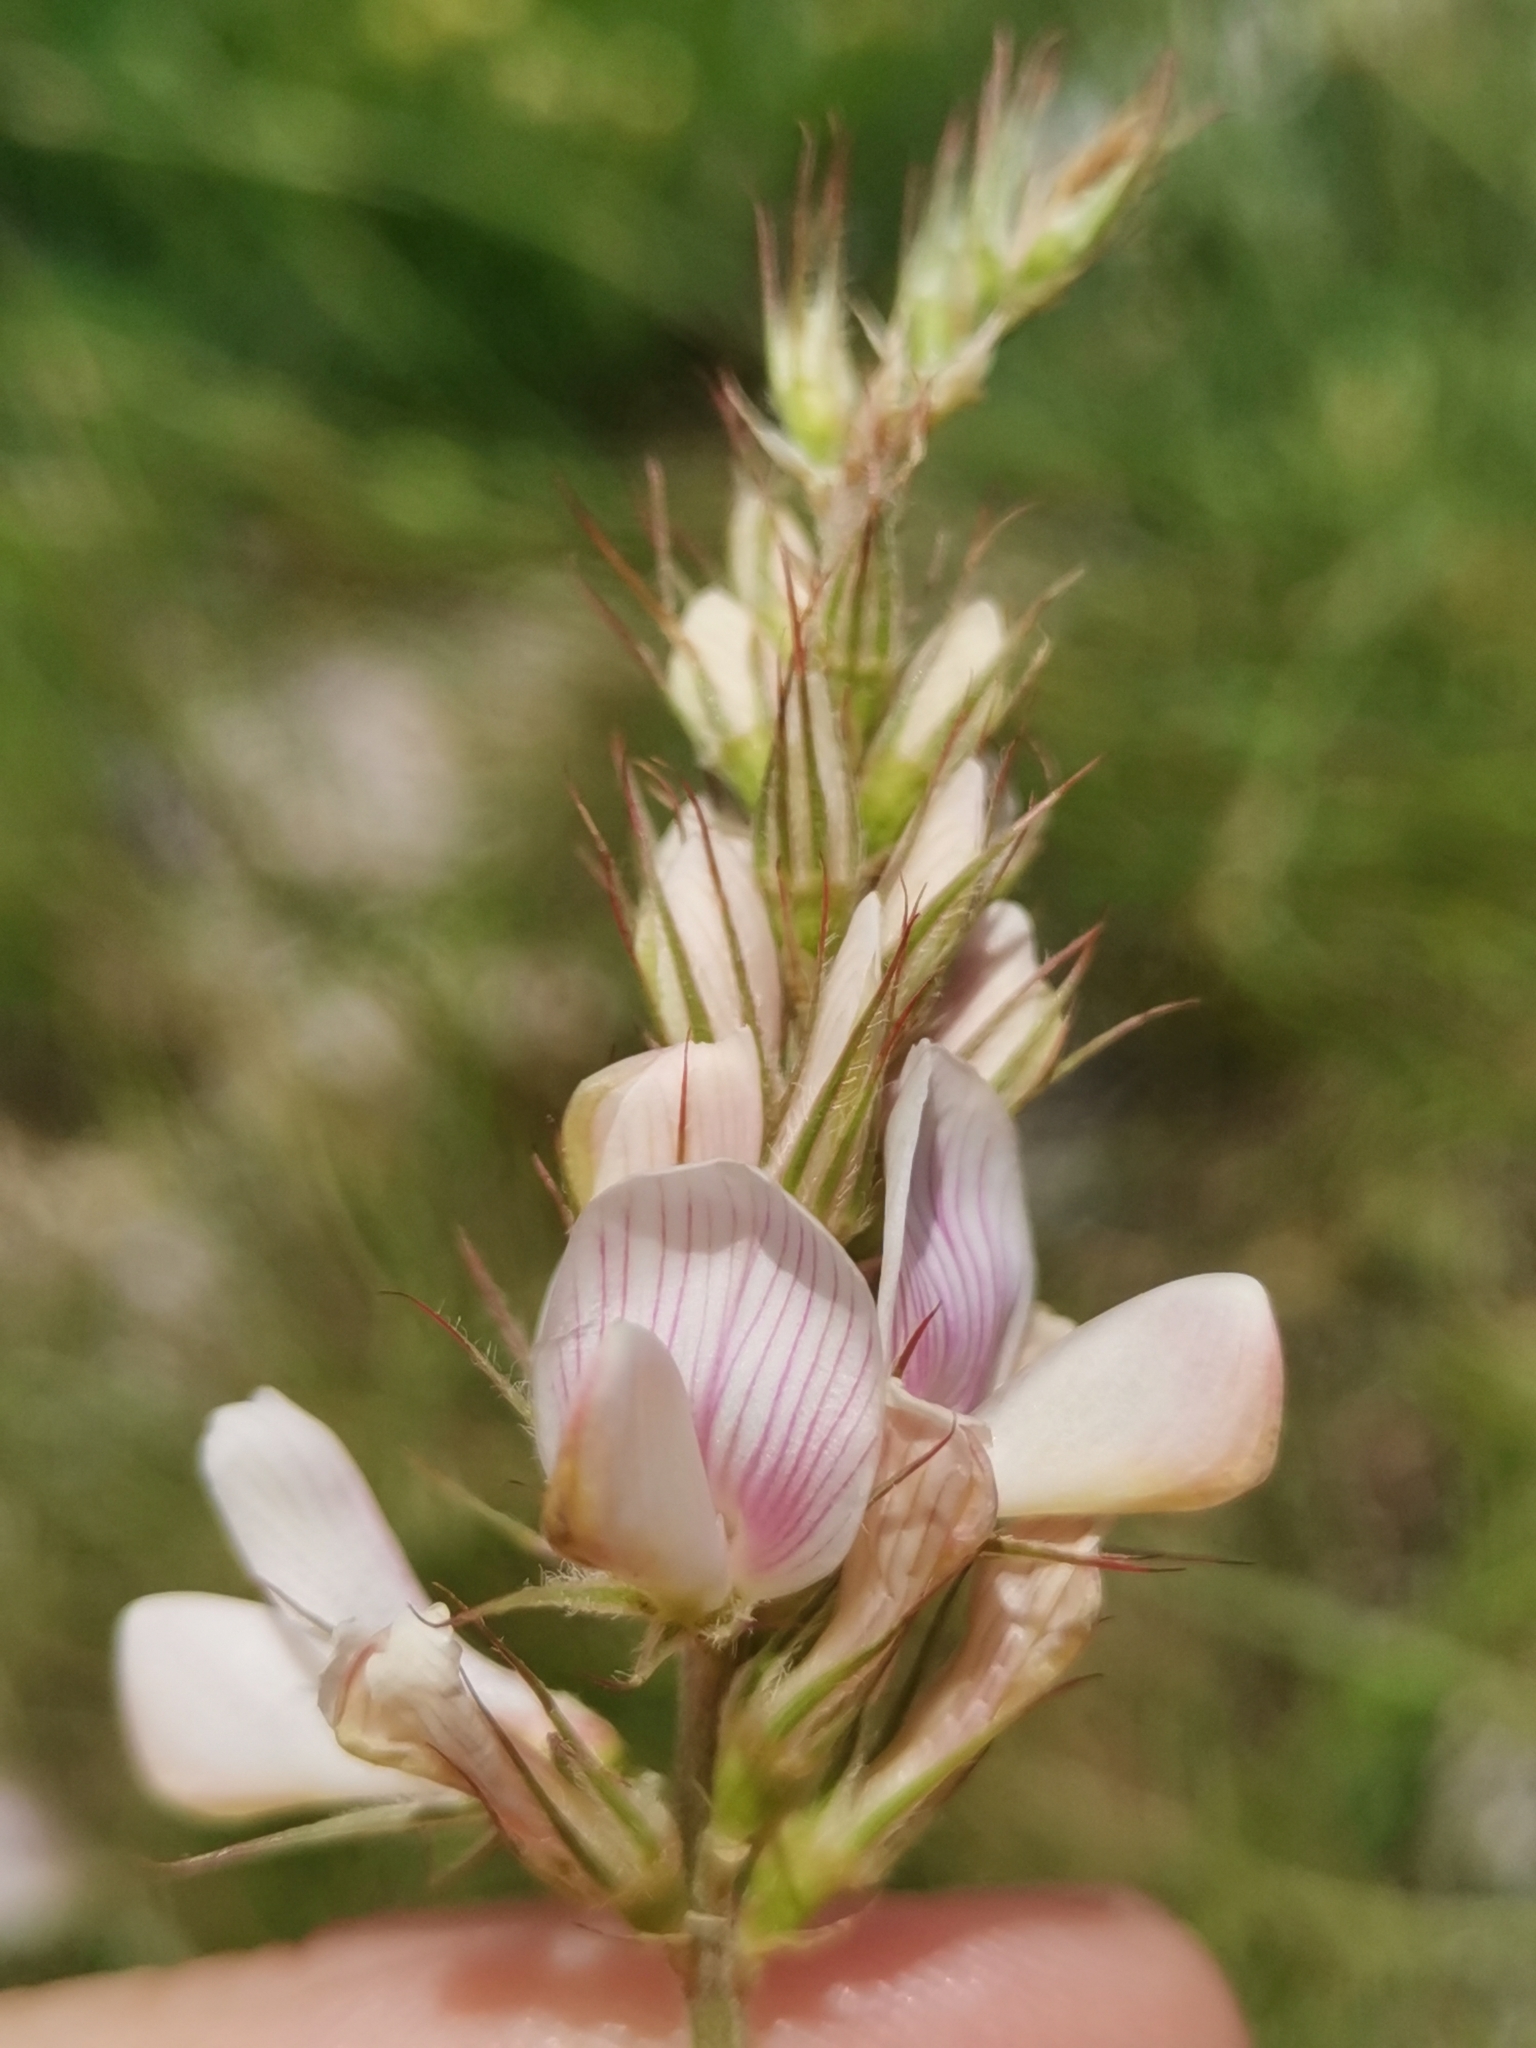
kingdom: Plantae
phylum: Tracheophyta
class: Magnoliopsida
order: Fabales
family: Fabaceae
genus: Onobrychis
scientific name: Onobrychis alba
